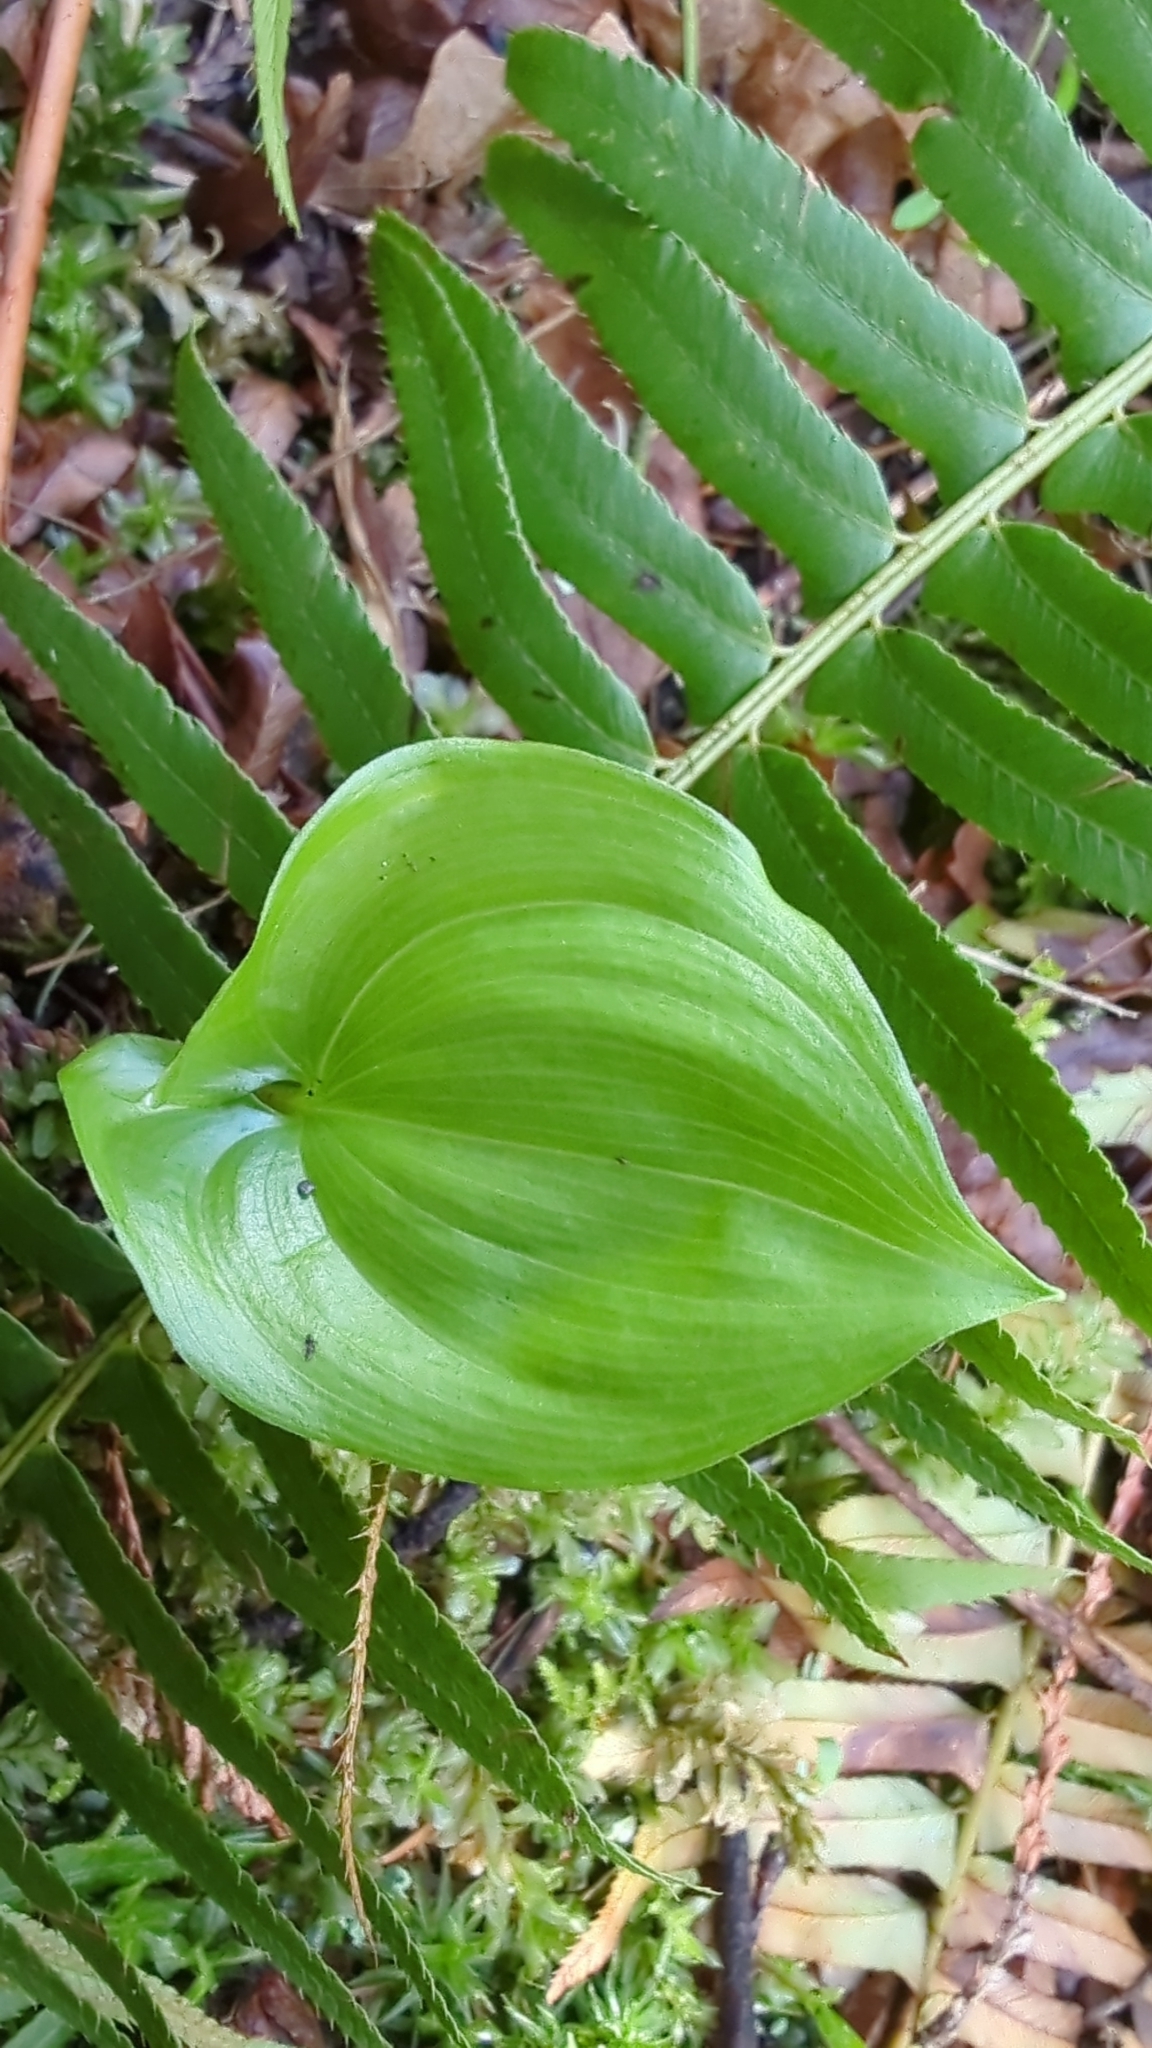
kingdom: Plantae
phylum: Tracheophyta
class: Liliopsida
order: Asparagales
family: Asparagaceae
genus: Maianthemum
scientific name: Maianthemum dilatatum
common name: False lily-of-the-valley
